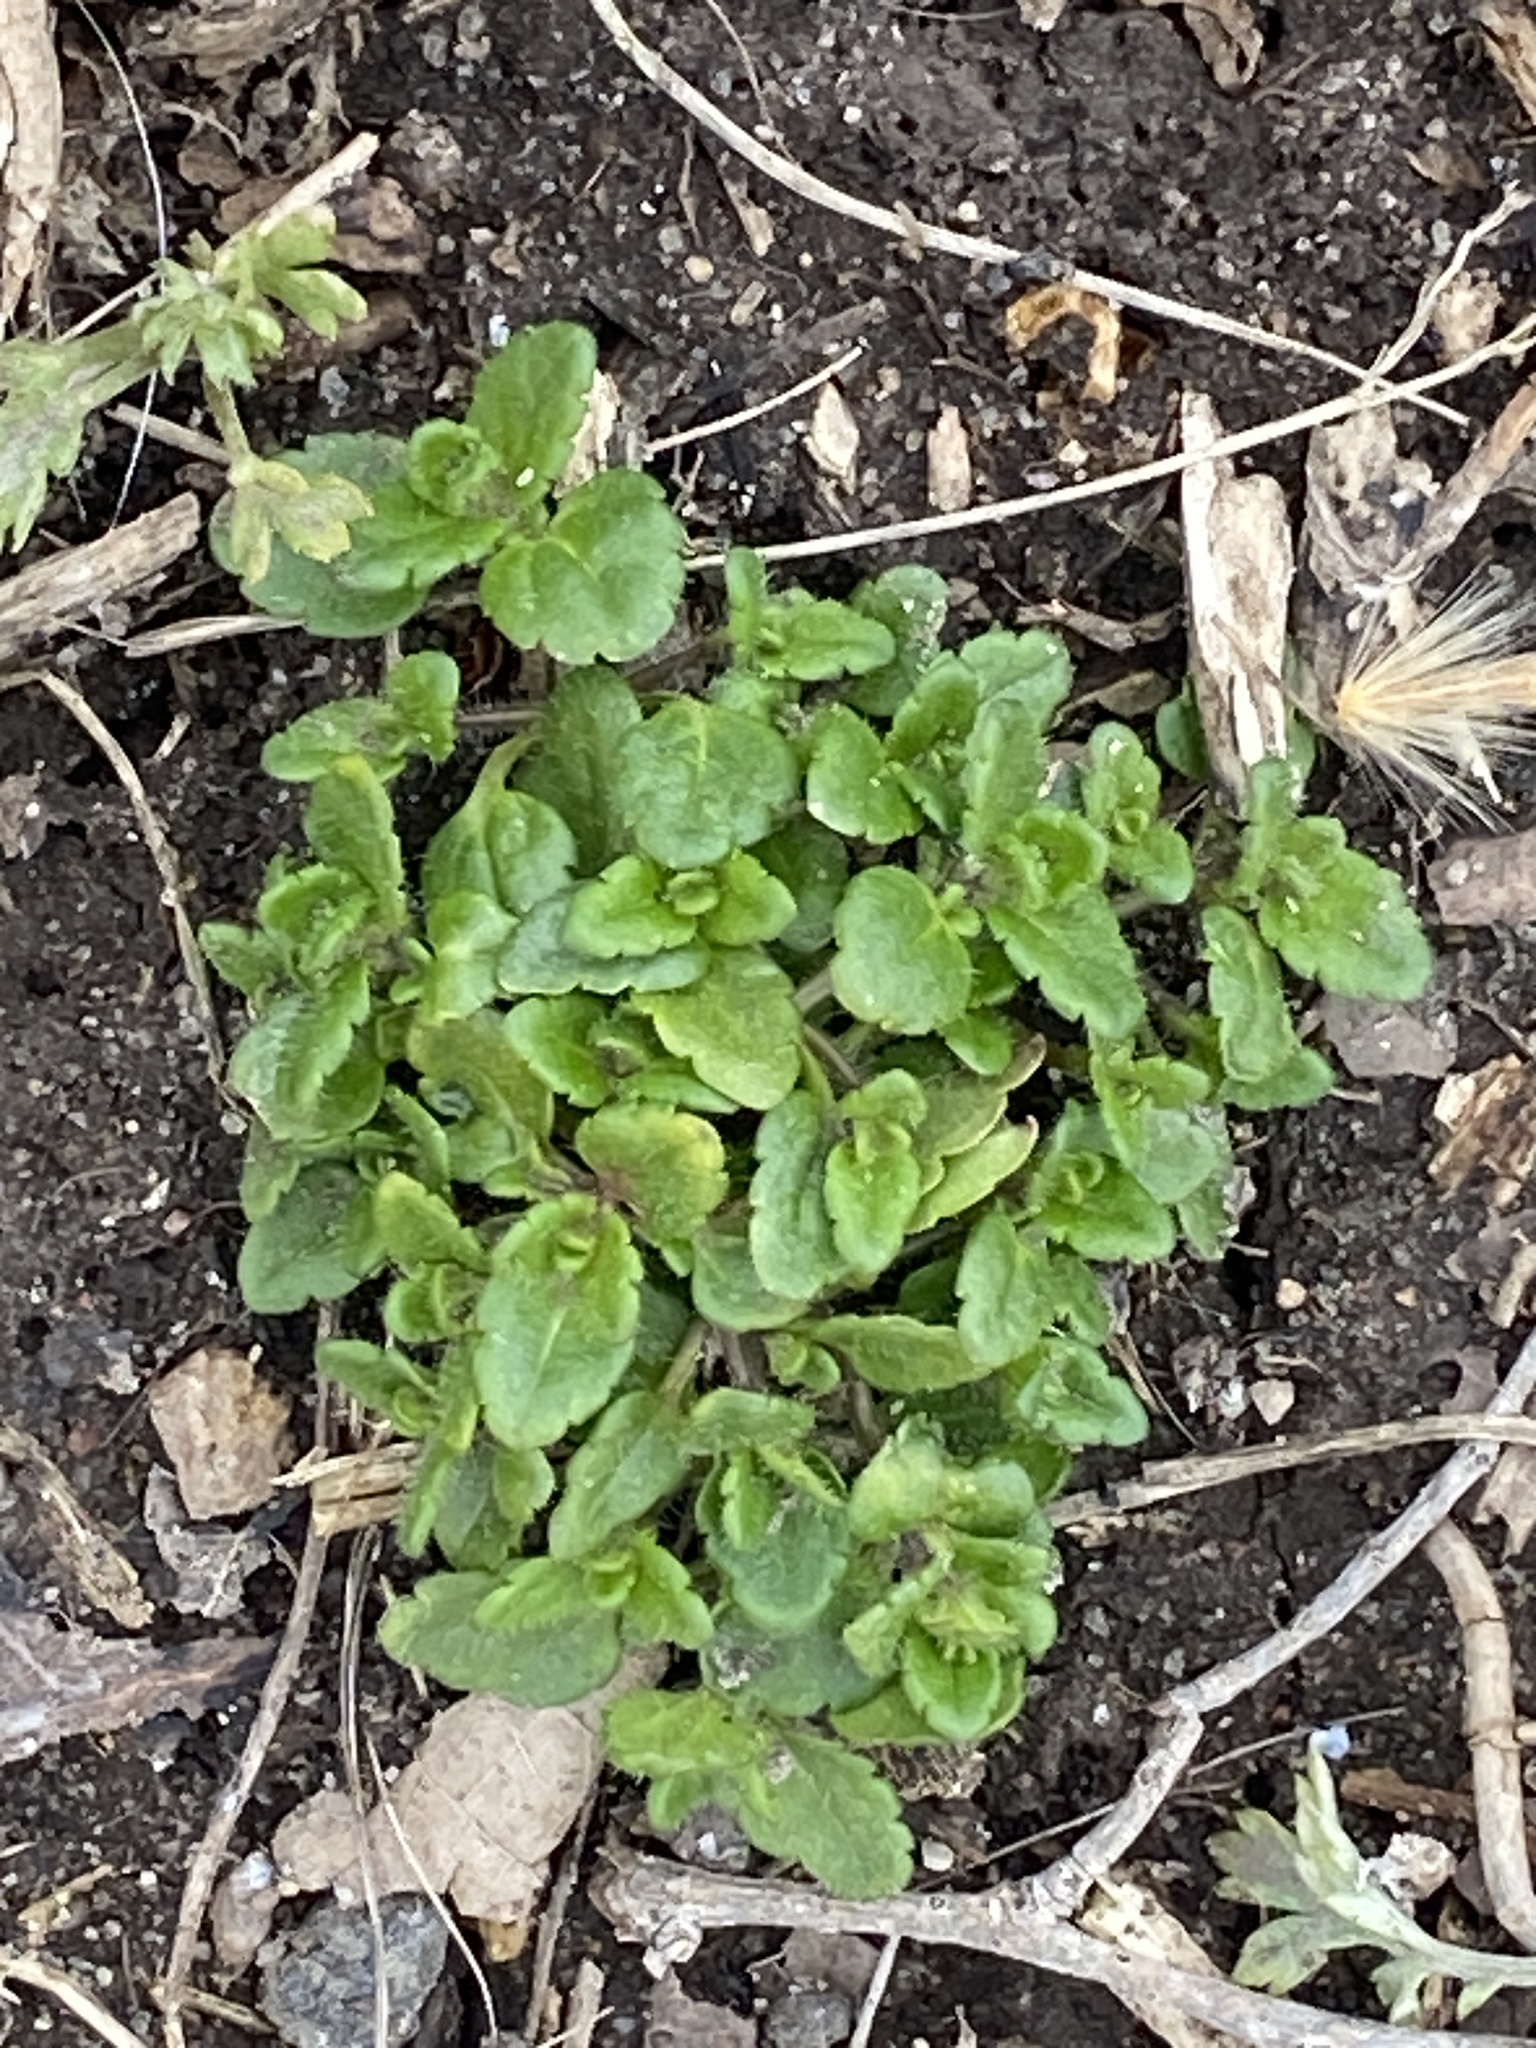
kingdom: Plantae
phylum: Tracheophyta
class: Magnoliopsida
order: Lamiales
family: Plantaginaceae
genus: Veronica
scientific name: Veronica persica
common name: Common field-speedwell
